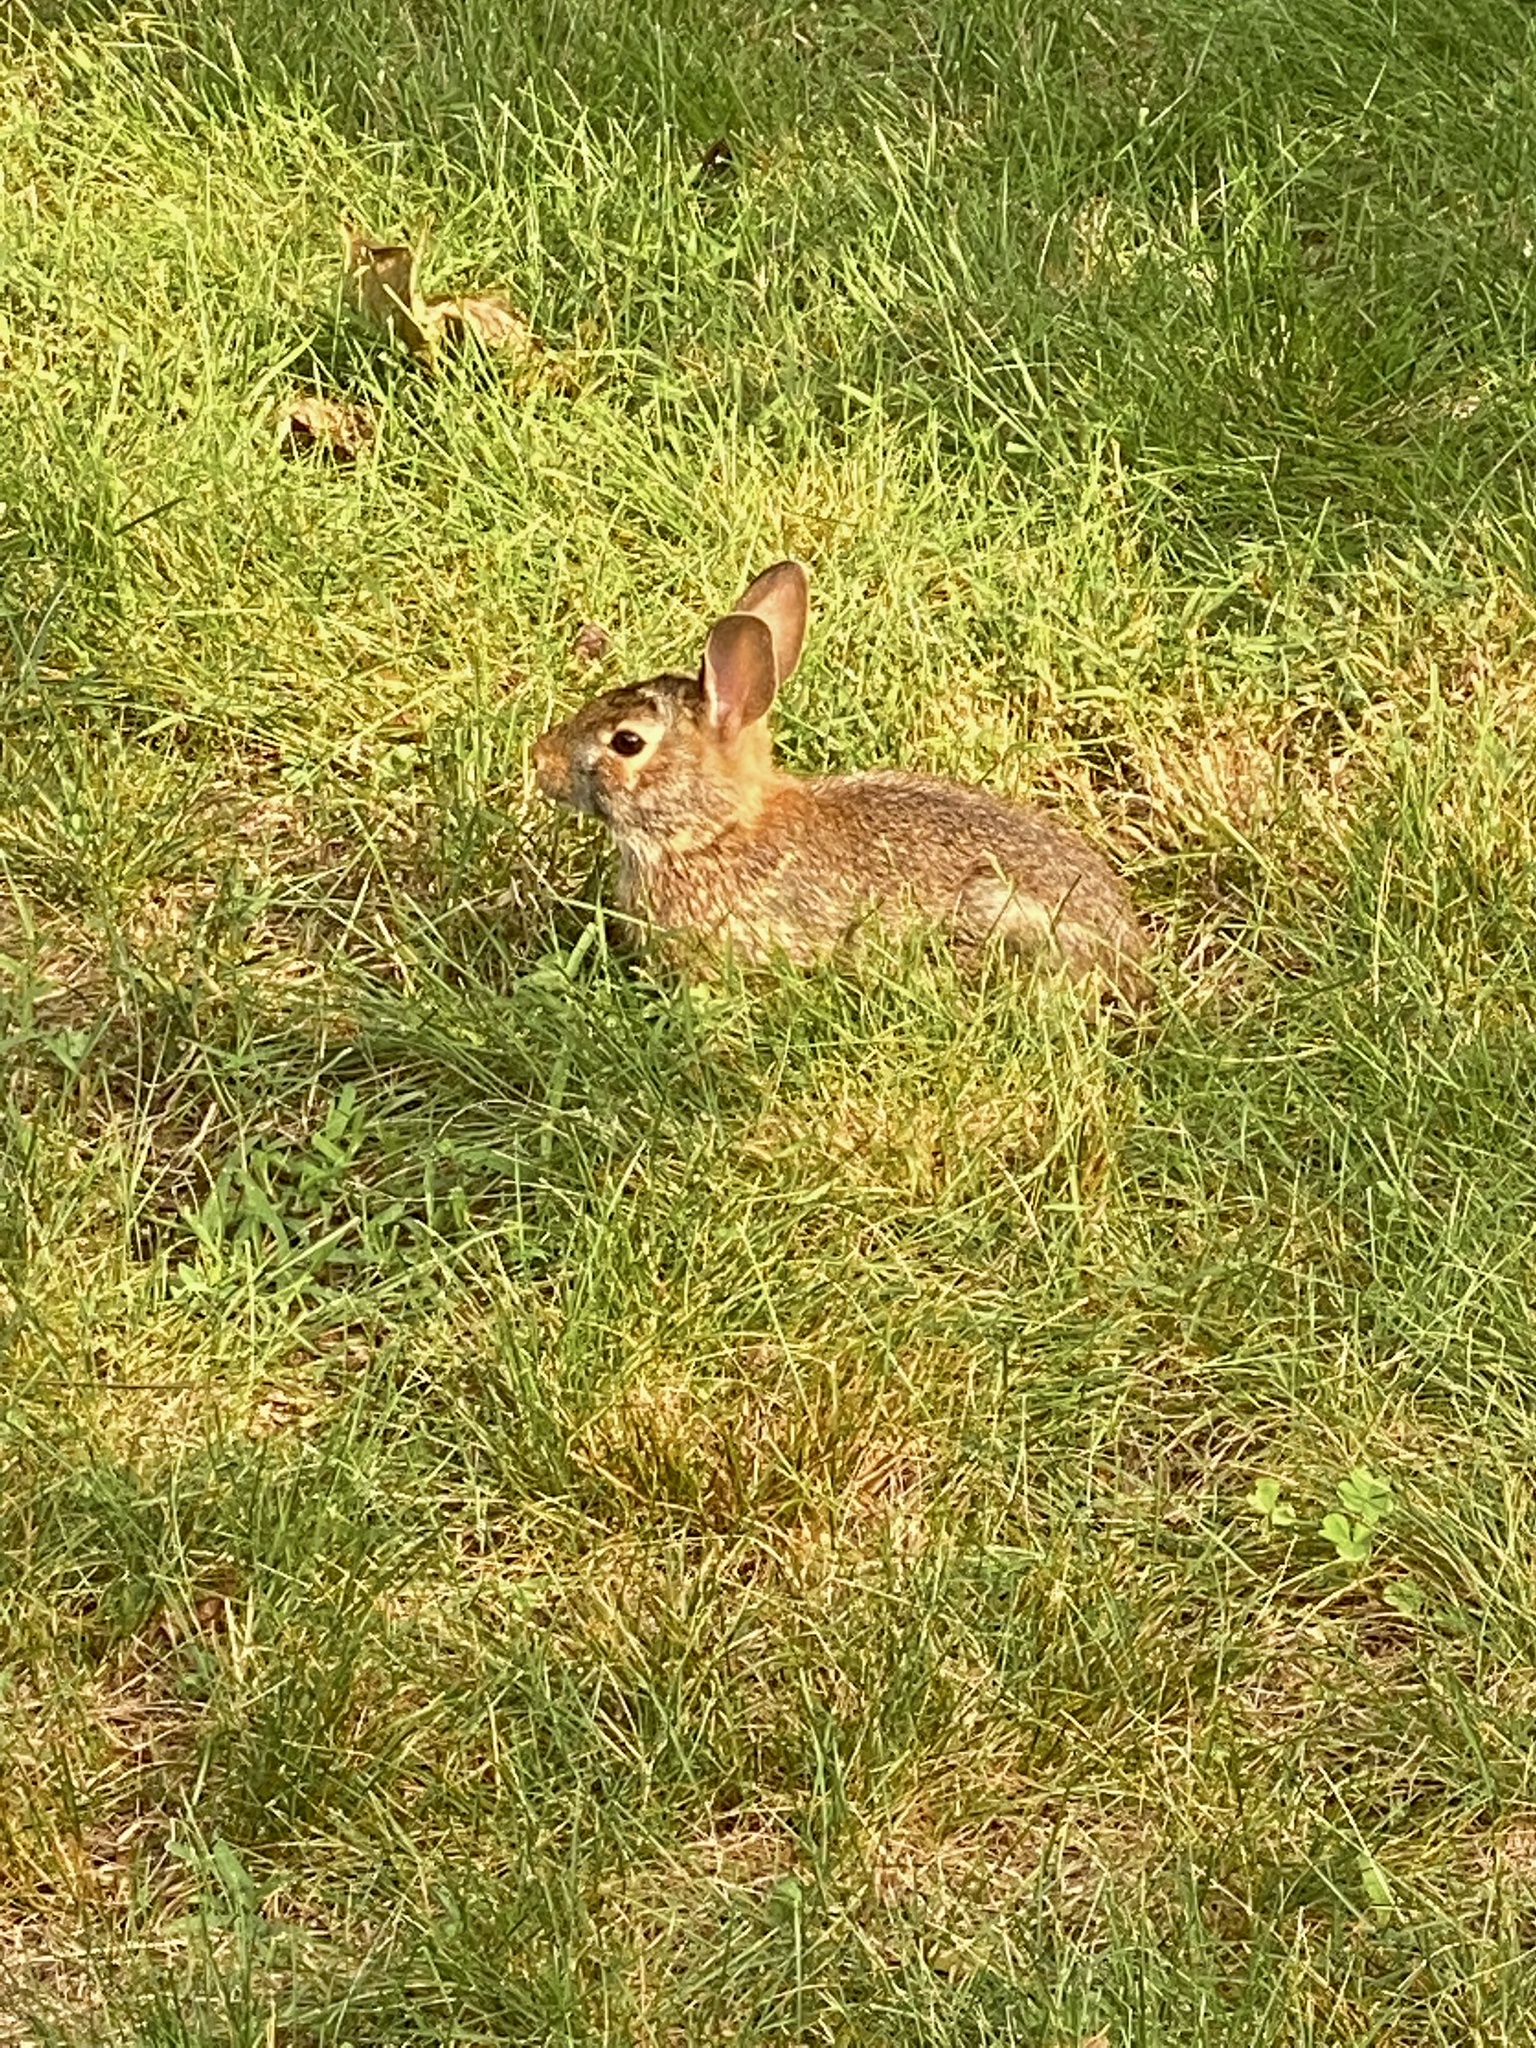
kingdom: Animalia
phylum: Chordata
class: Mammalia
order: Lagomorpha
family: Leporidae
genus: Sylvilagus
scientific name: Sylvilagus floridanus
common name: Eastern cottontail
